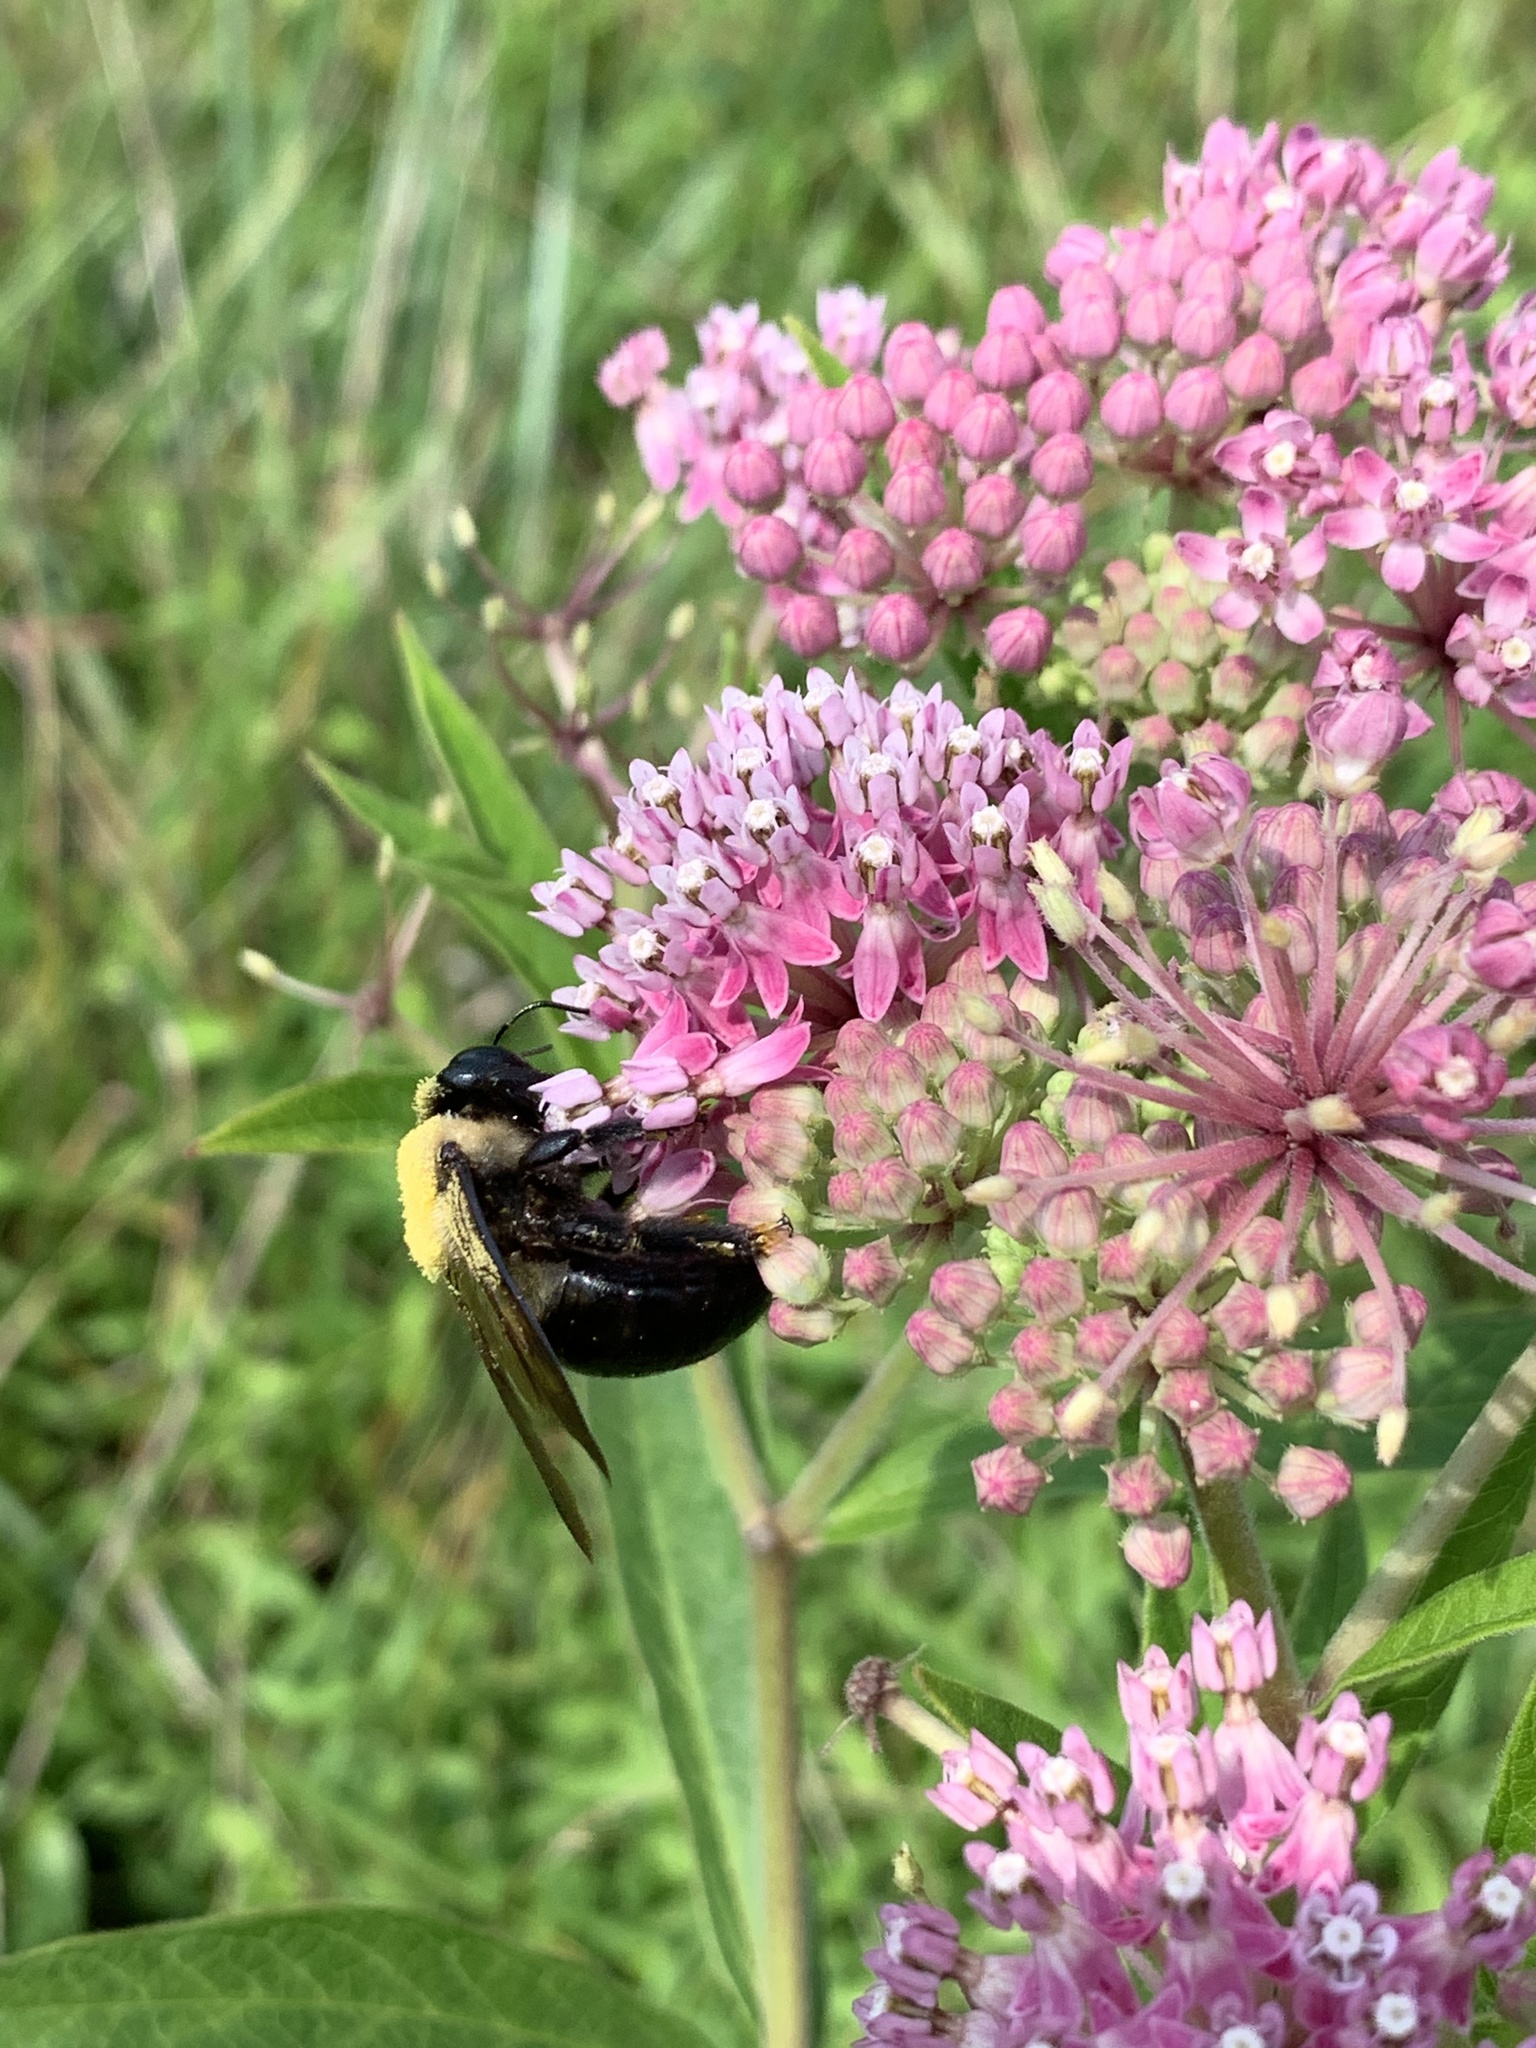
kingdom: Animalia
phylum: Arthropoda
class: Insecta
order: Hymenoptera
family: Apidae
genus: Xylocopa
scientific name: Xylocopa virginica
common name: Carpenter bee
